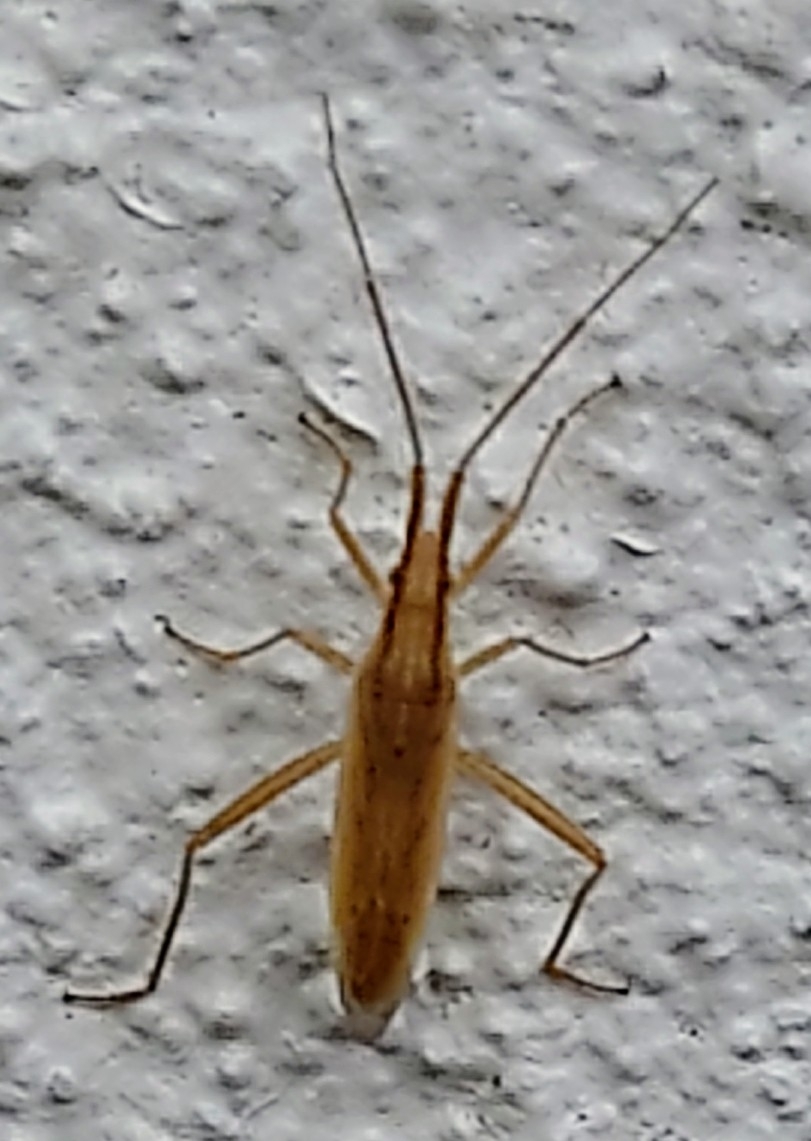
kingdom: Animalia
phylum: Arthropoda
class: Insecta
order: Hemiptera
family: Miridae
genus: Stenodema
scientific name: Stenodema laevigata
